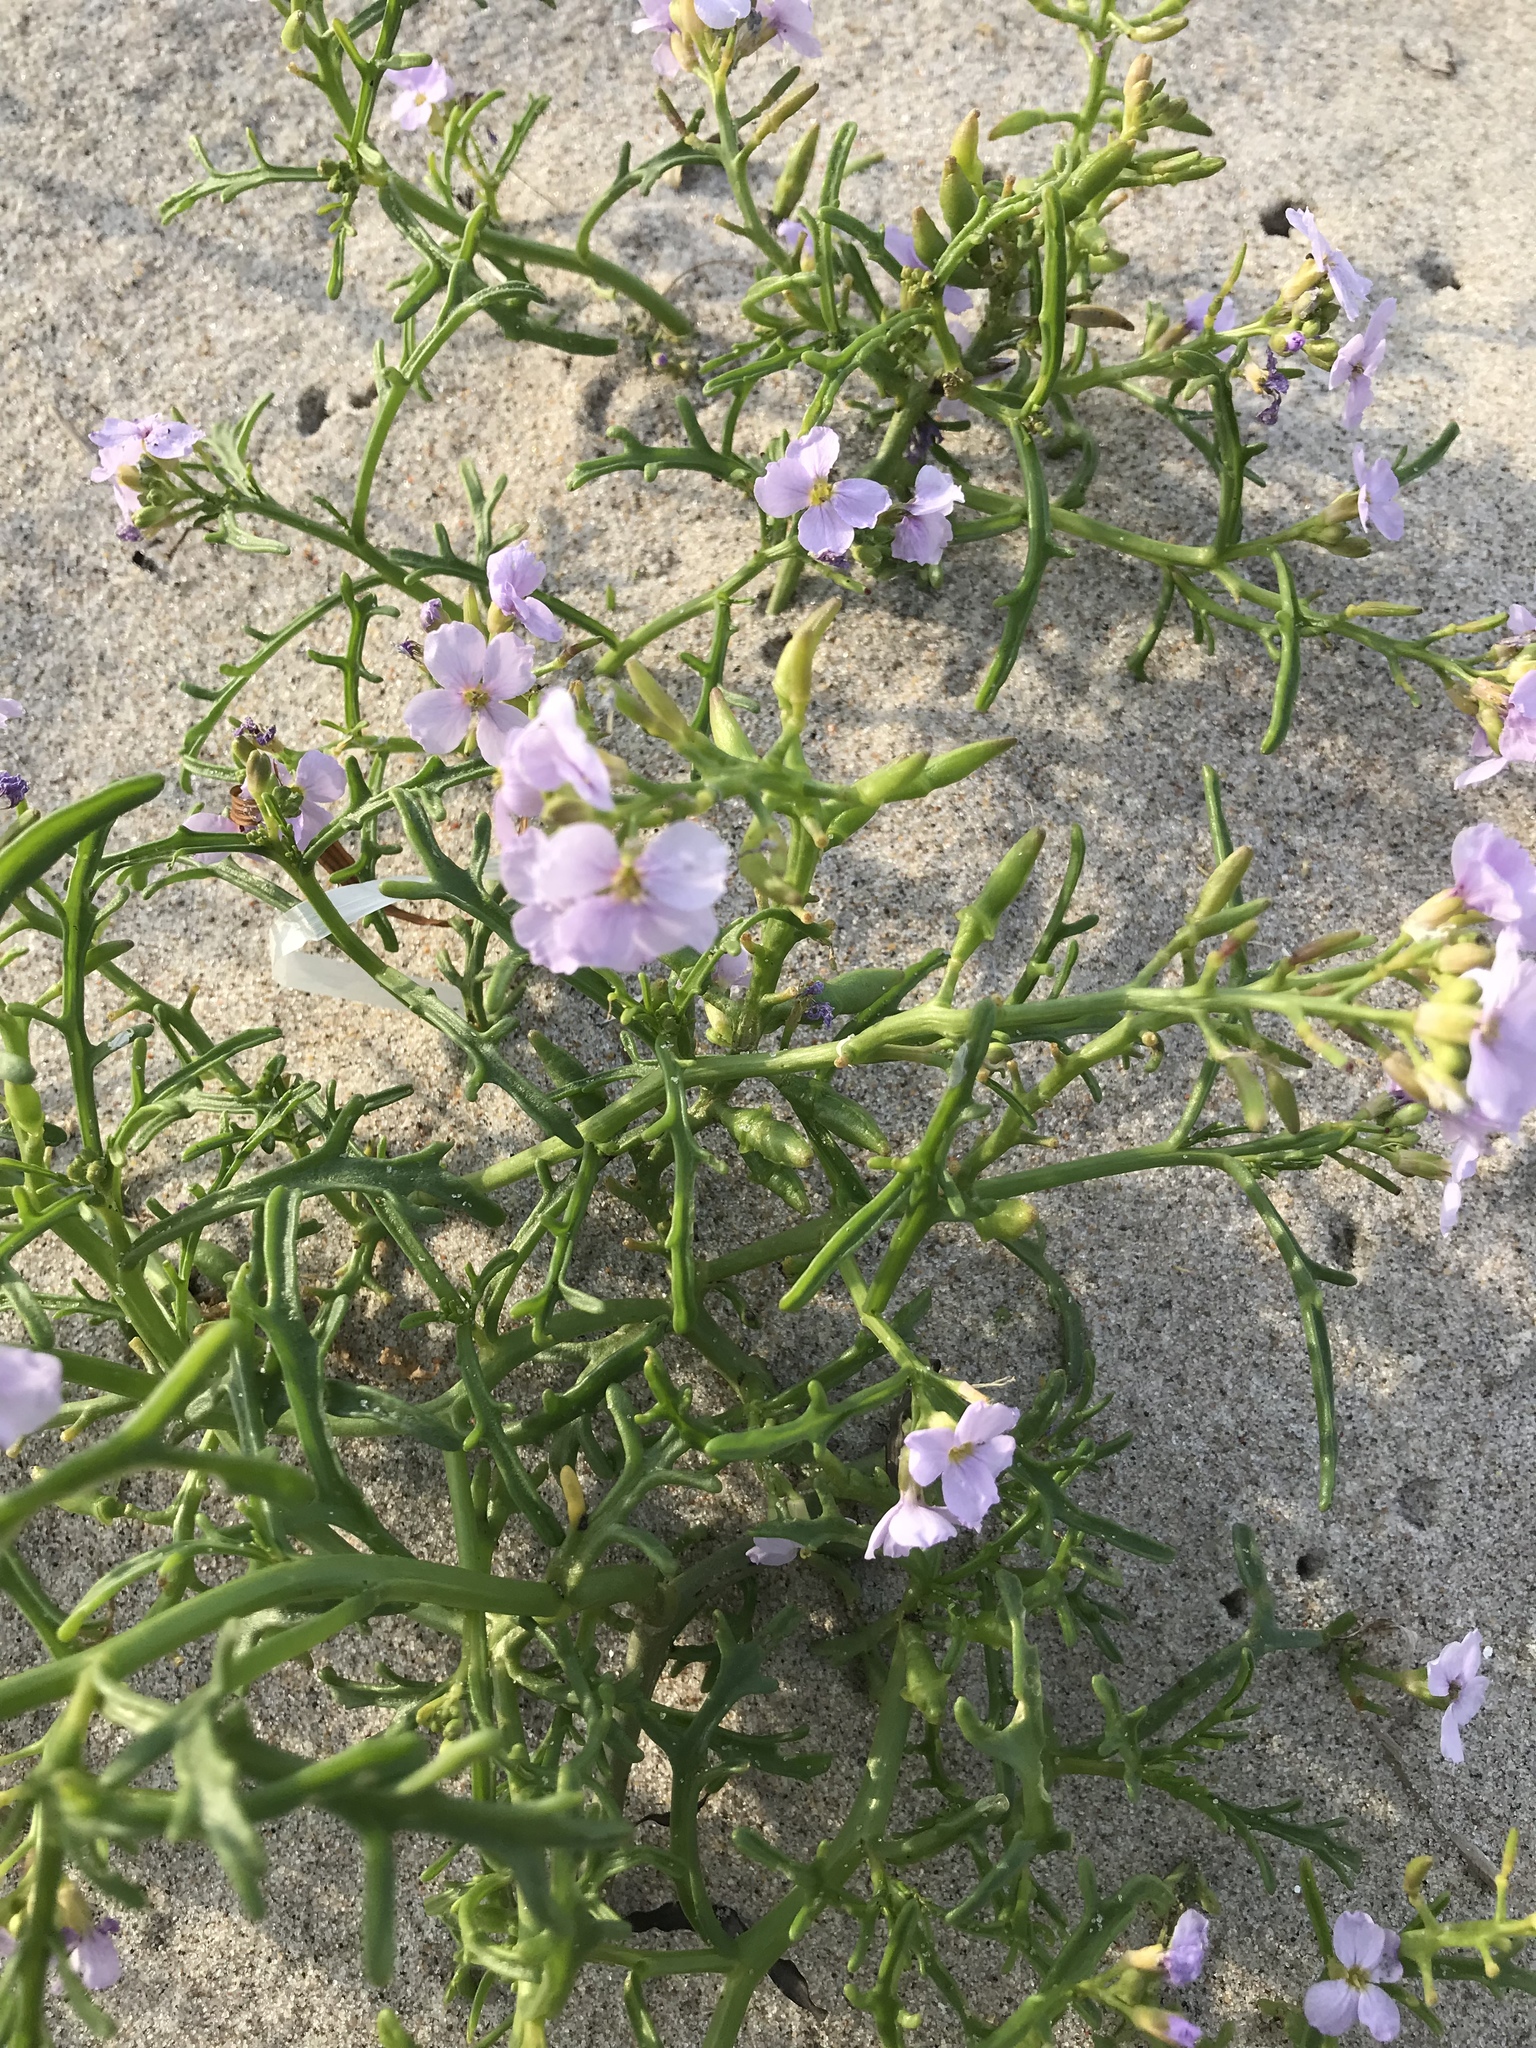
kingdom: Plantae
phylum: Tracheophyta
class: Magnoliopsida
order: Brassicales
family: Brassicaceae
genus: Cakile
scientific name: Cakile maritima
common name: Sea rocket
